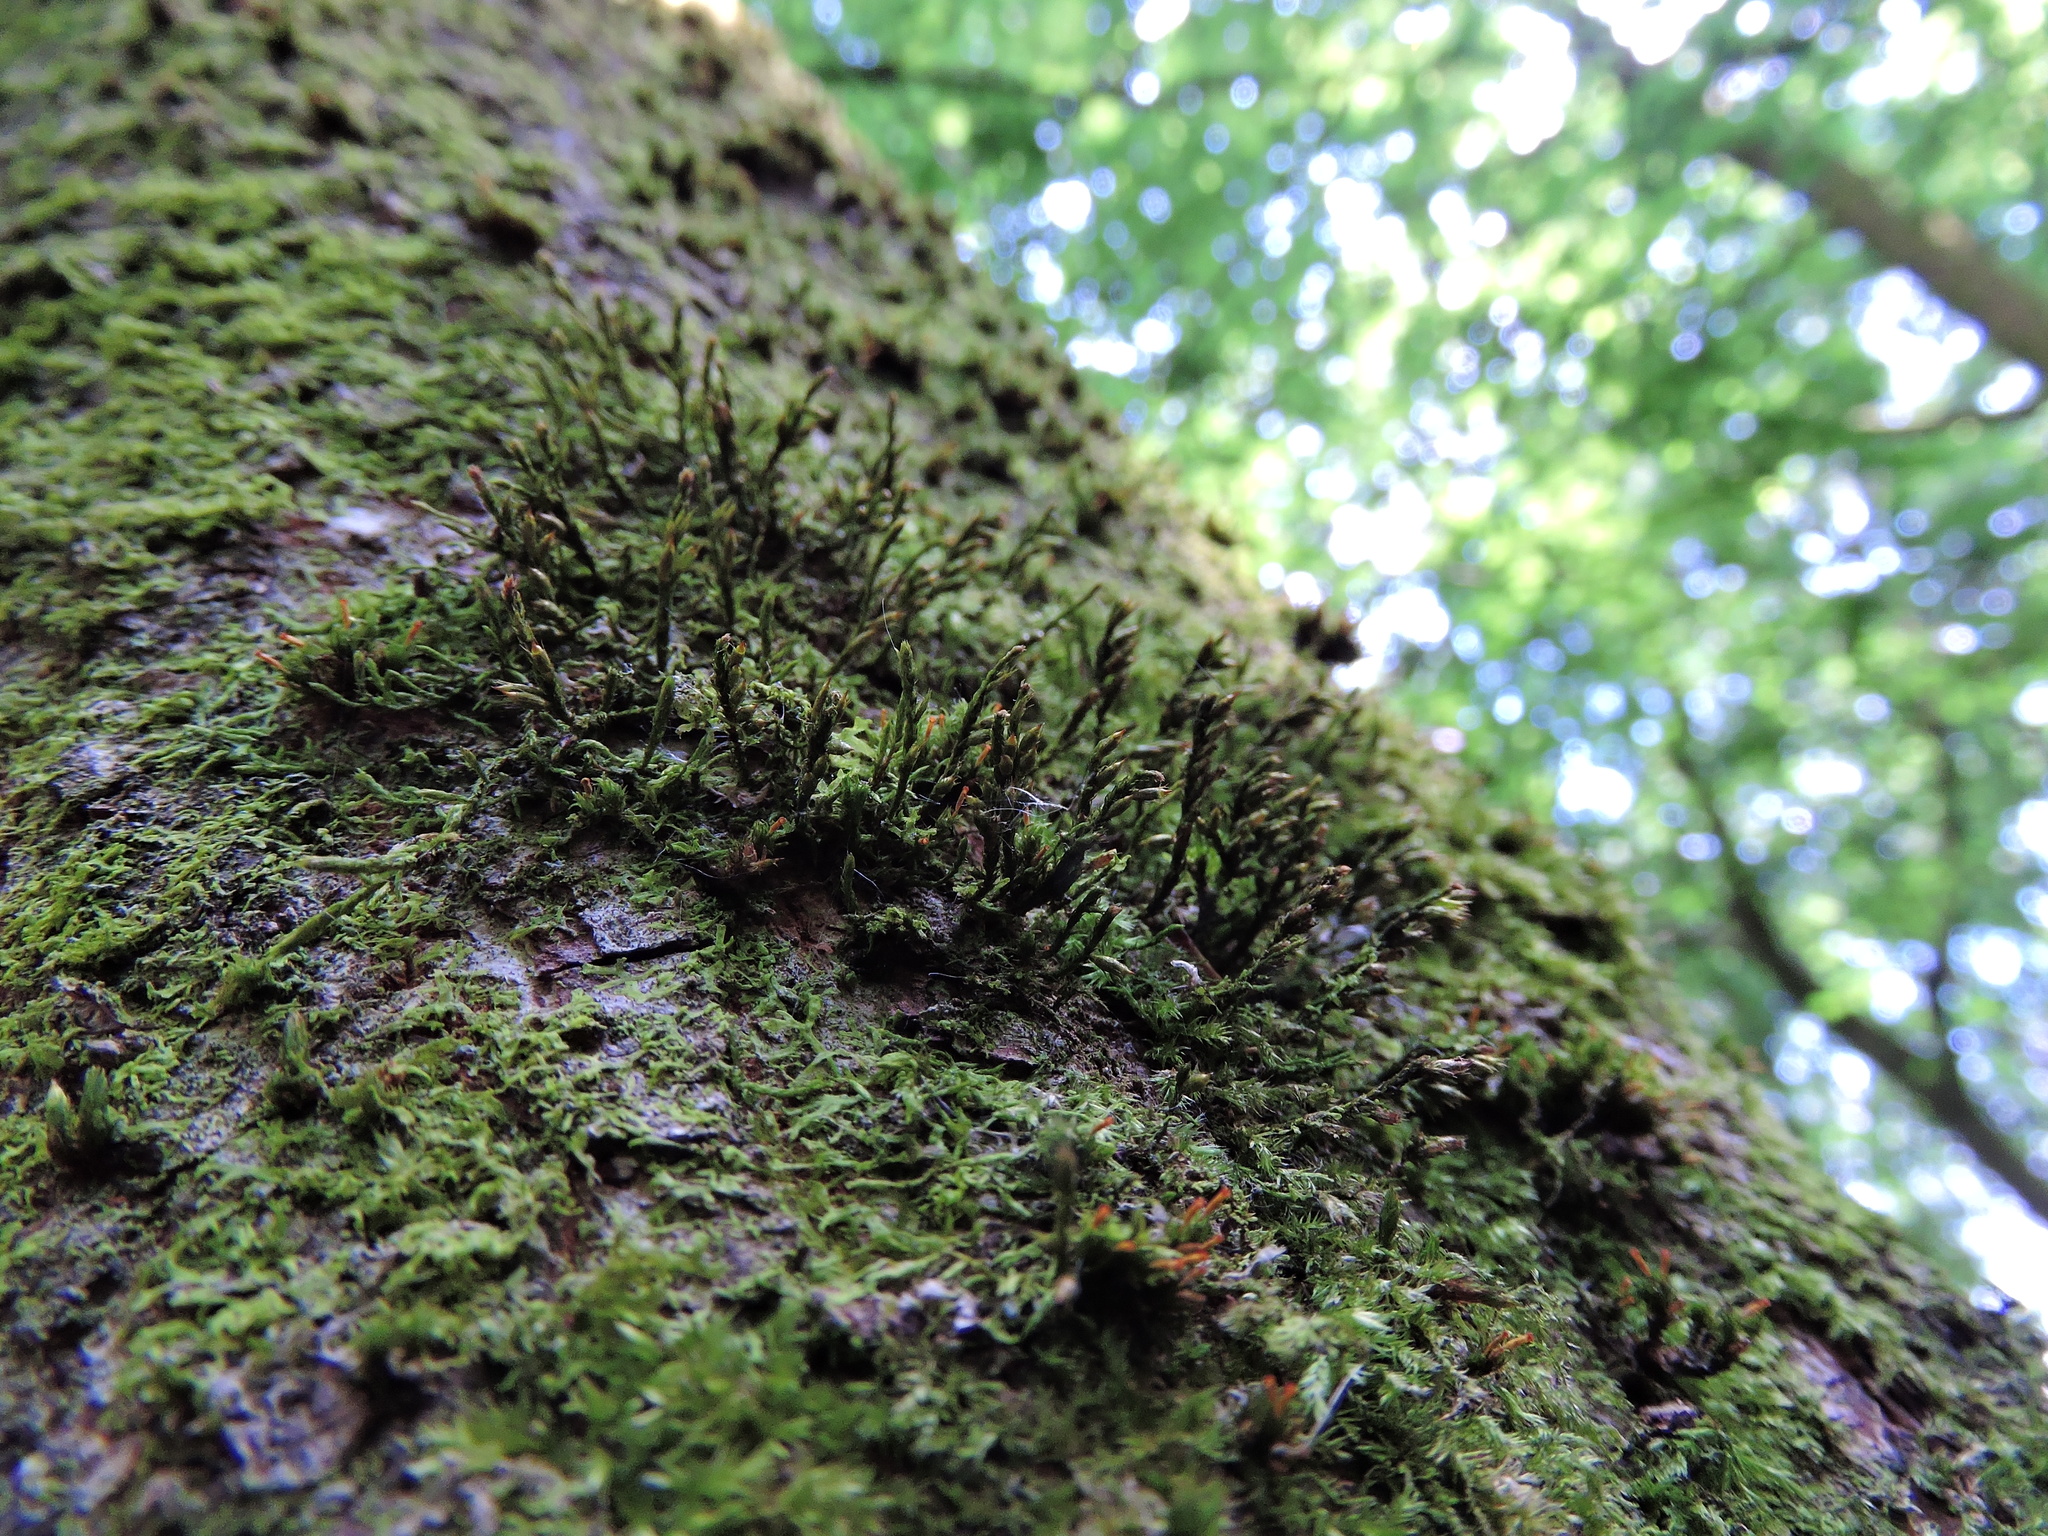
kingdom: Plantae
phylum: Bryophyta
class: Bryopsida
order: Hypnales
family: Cryphaeaceae
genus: Cryphaea
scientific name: Cryphaea heteromalla
